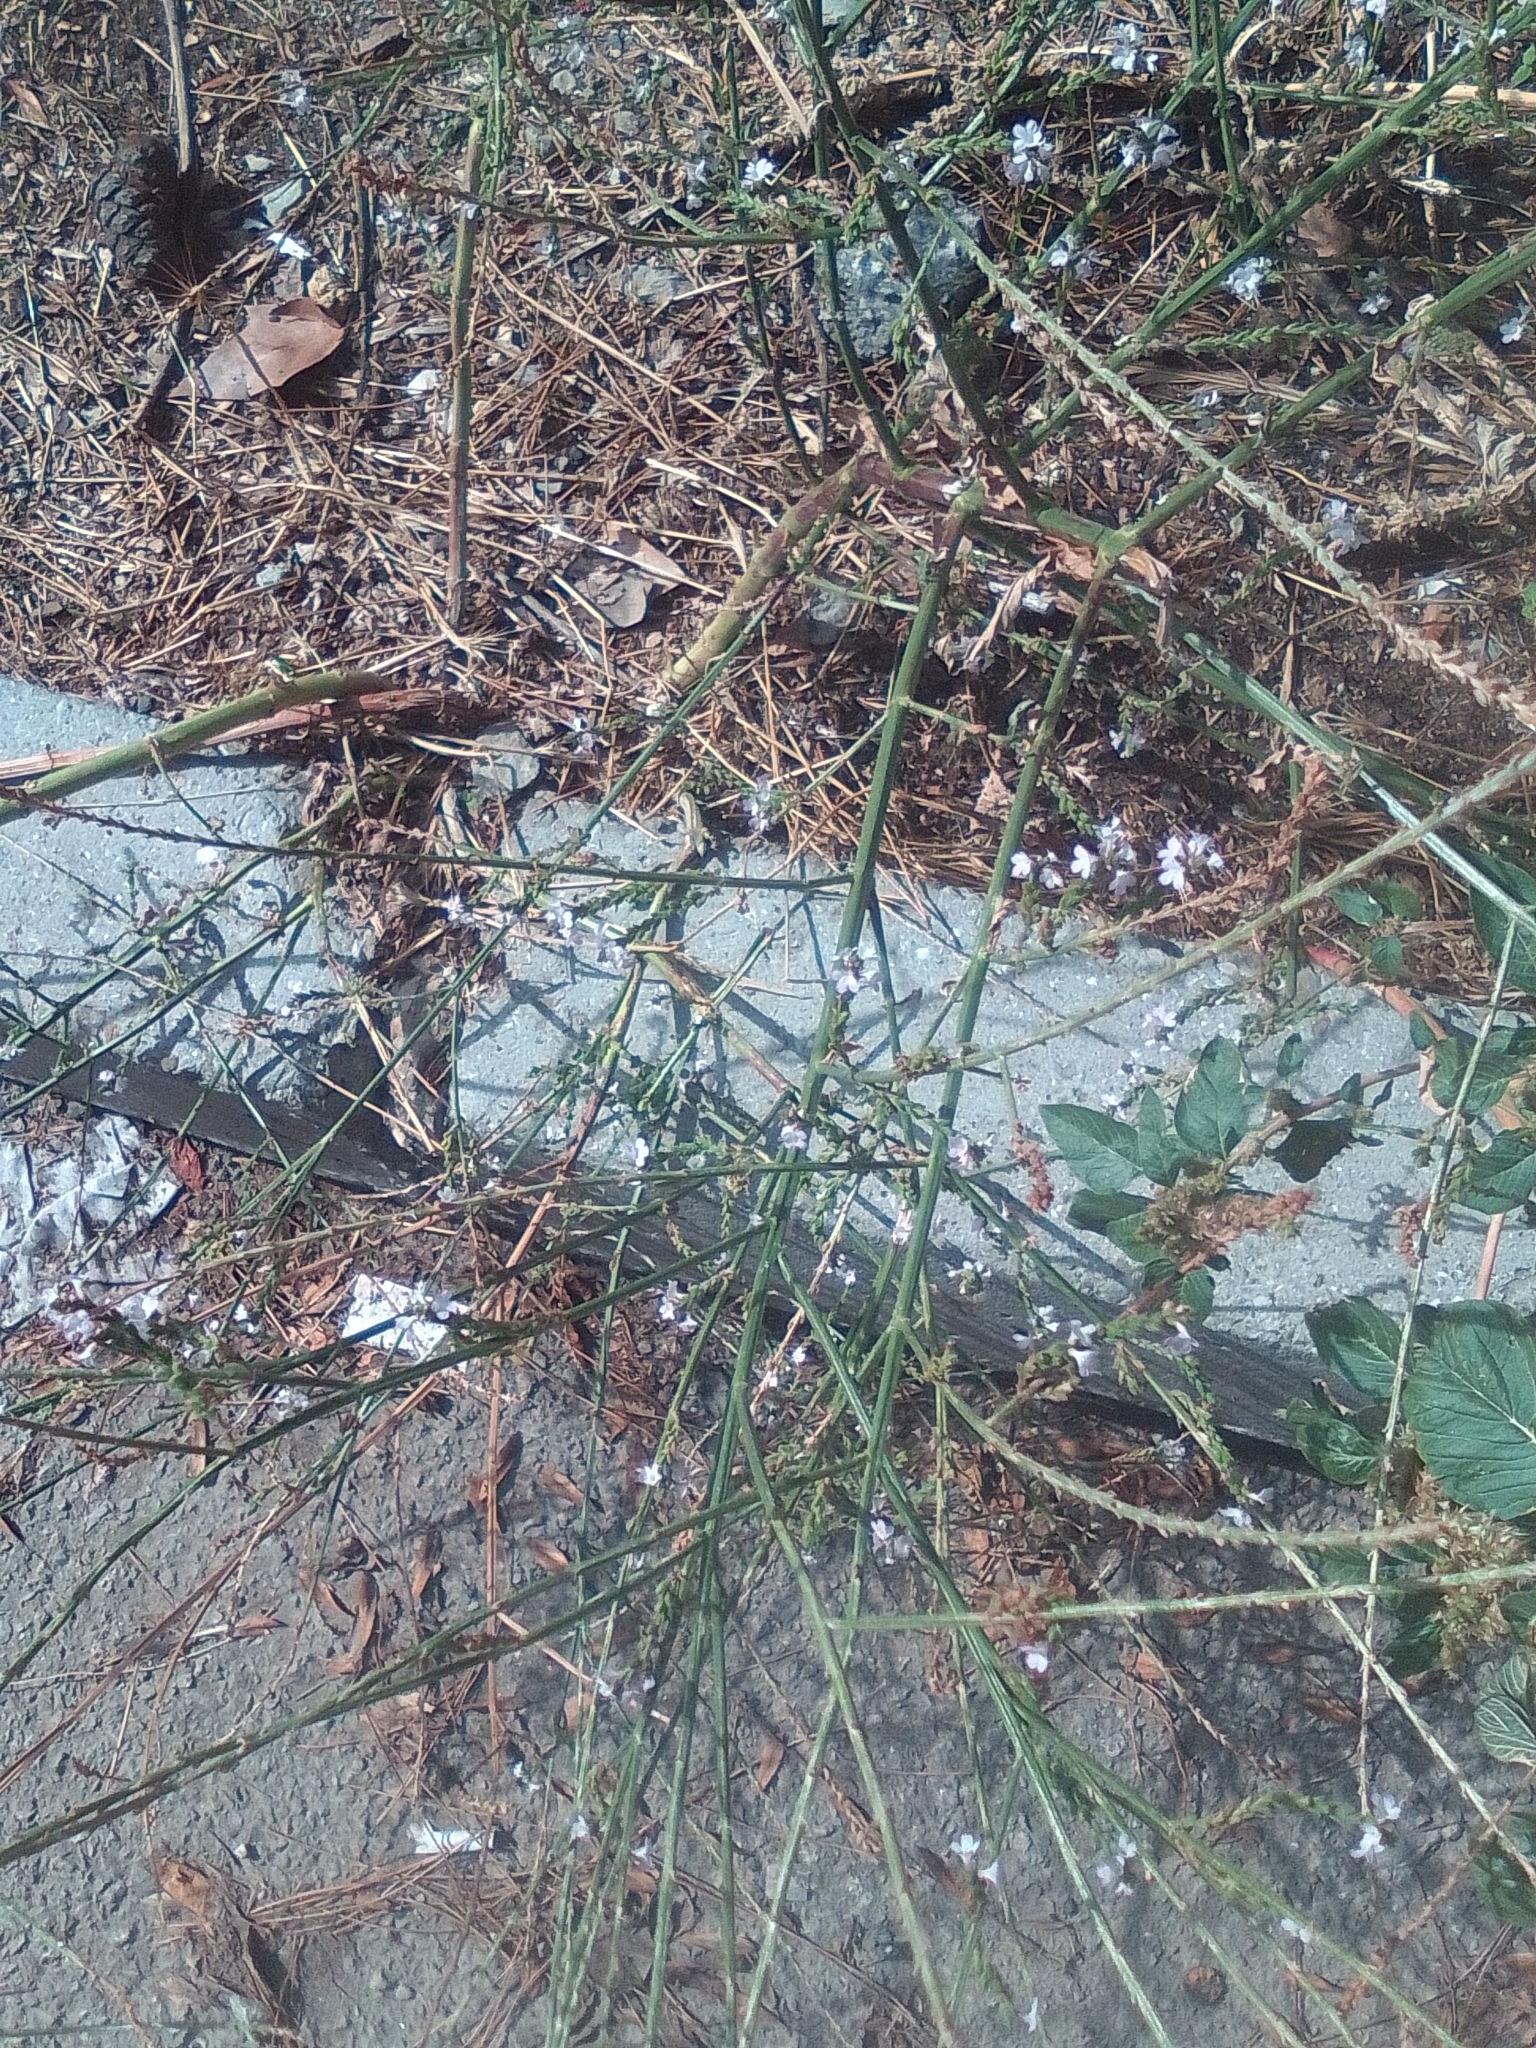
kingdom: Plantae
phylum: Tracheophyta
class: Magnoliopsida
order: Lamiales
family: Verbenaceae
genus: Verbena
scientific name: Verbena officinalis
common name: Vervain
